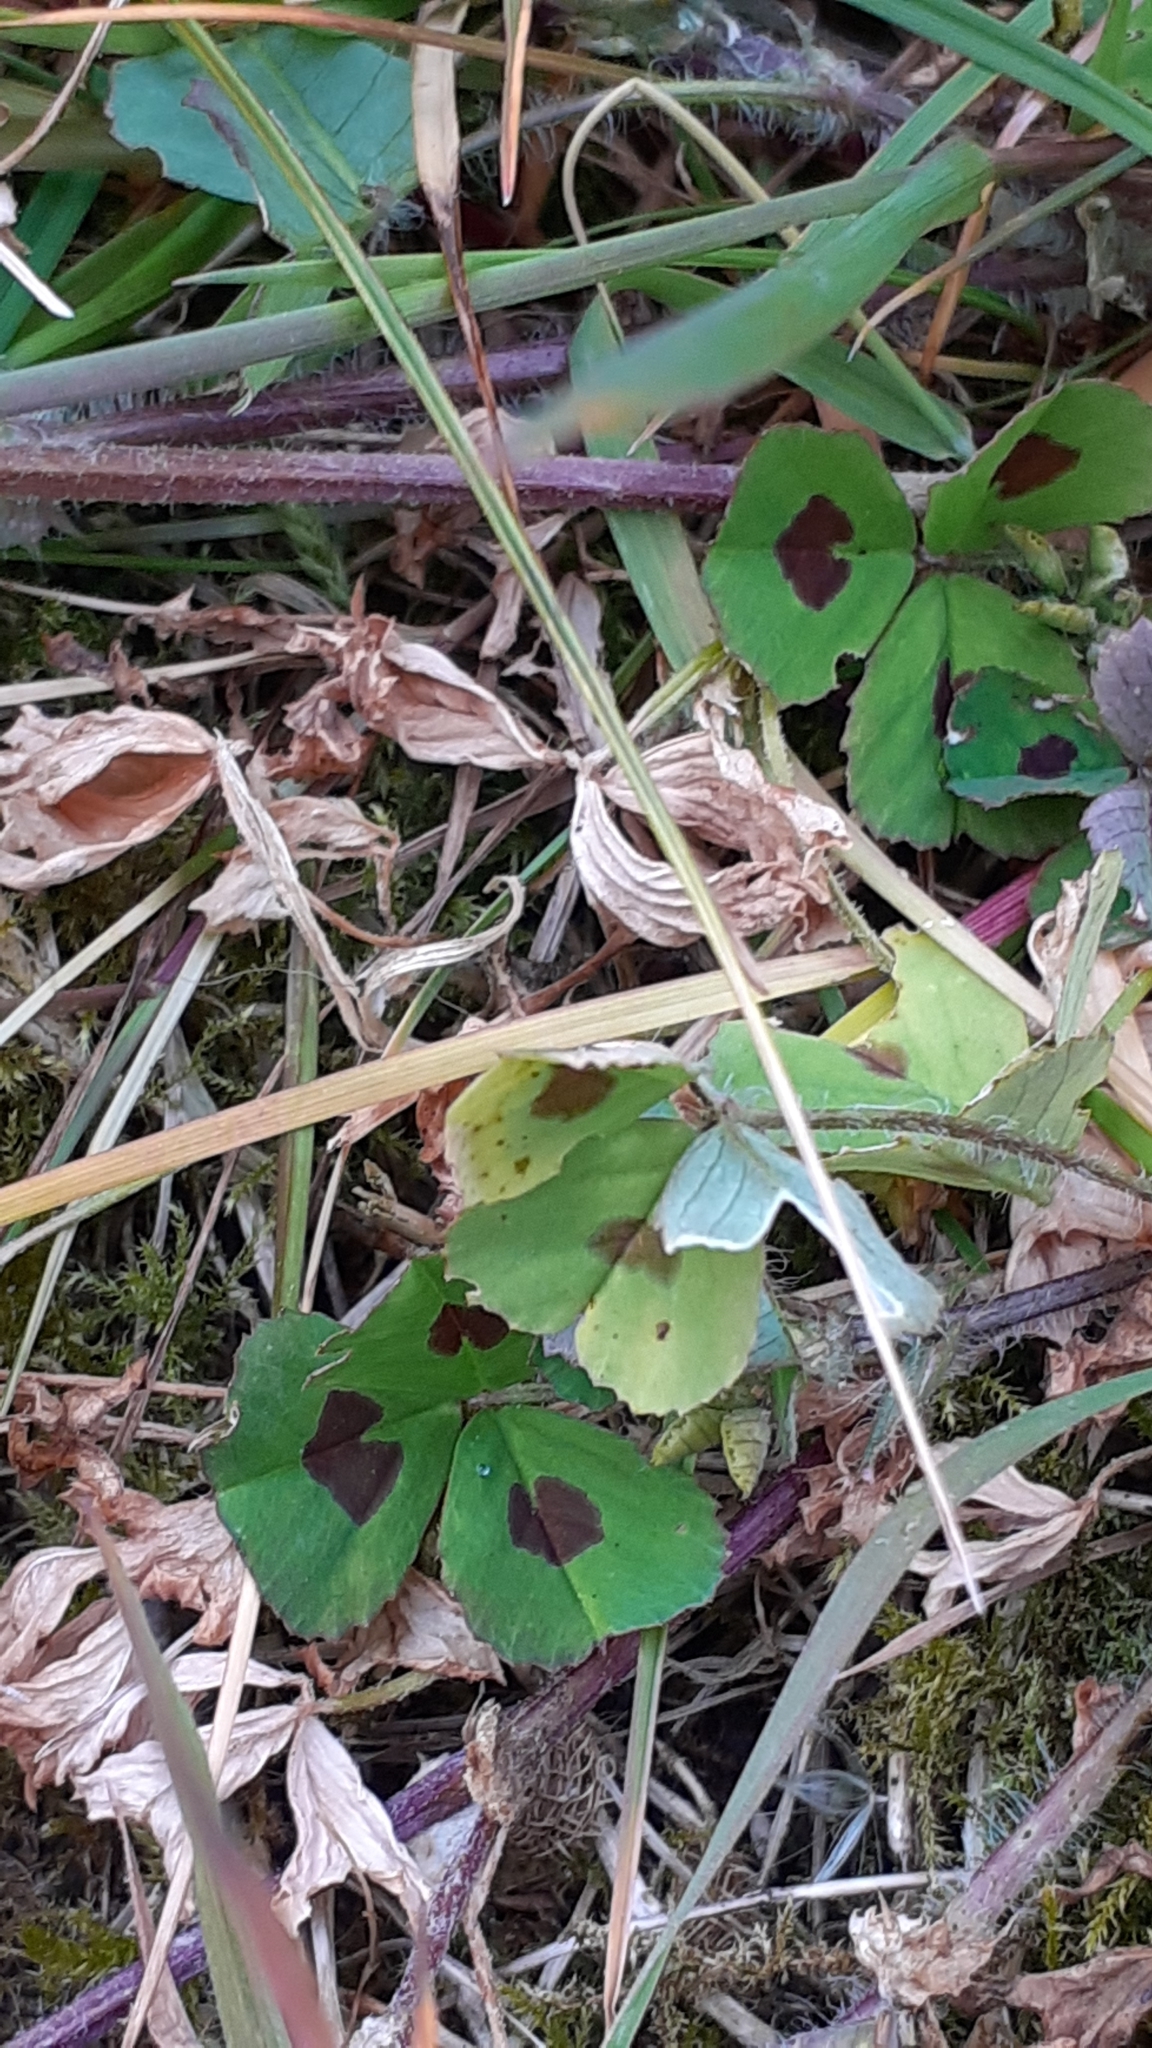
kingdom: Plantae
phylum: Tracheophyta
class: Magnoliopsida
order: Fabales
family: Fabaceae
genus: Medicago
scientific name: Medicago arabica
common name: Spotted medick
